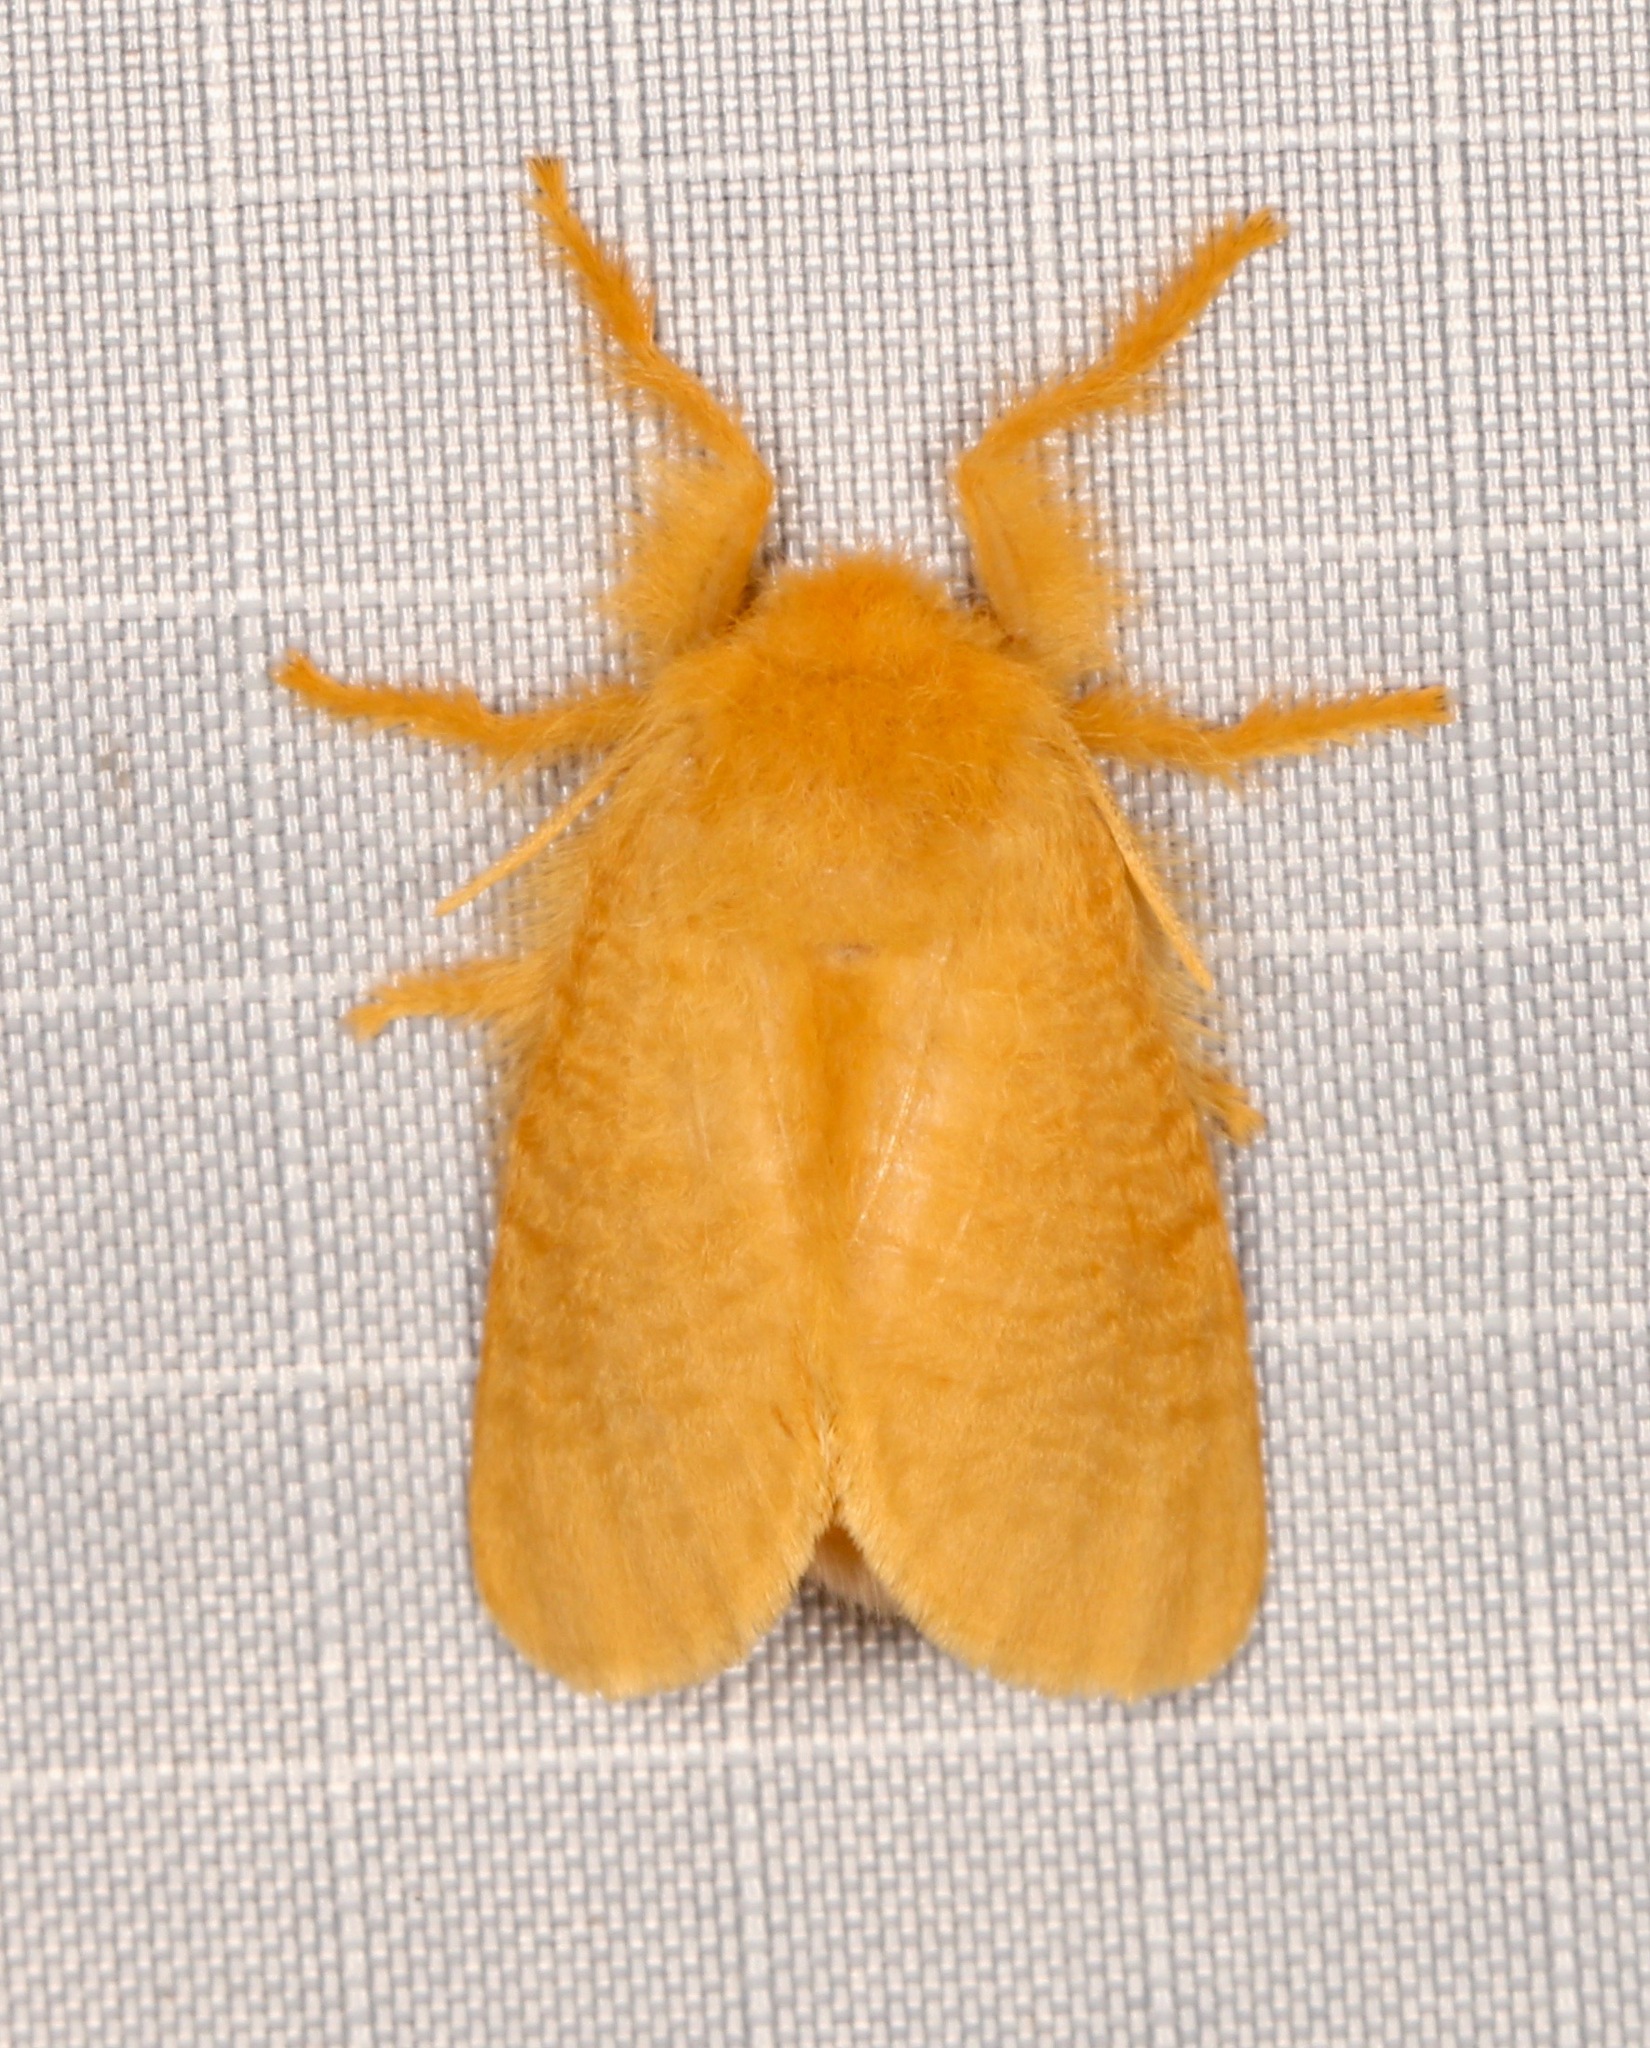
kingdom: Animalia
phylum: Arthropoda
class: Insecta
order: Lepidoptera
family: Megalopygidae
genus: Megalopyge
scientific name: Megalopyge pixidifera
